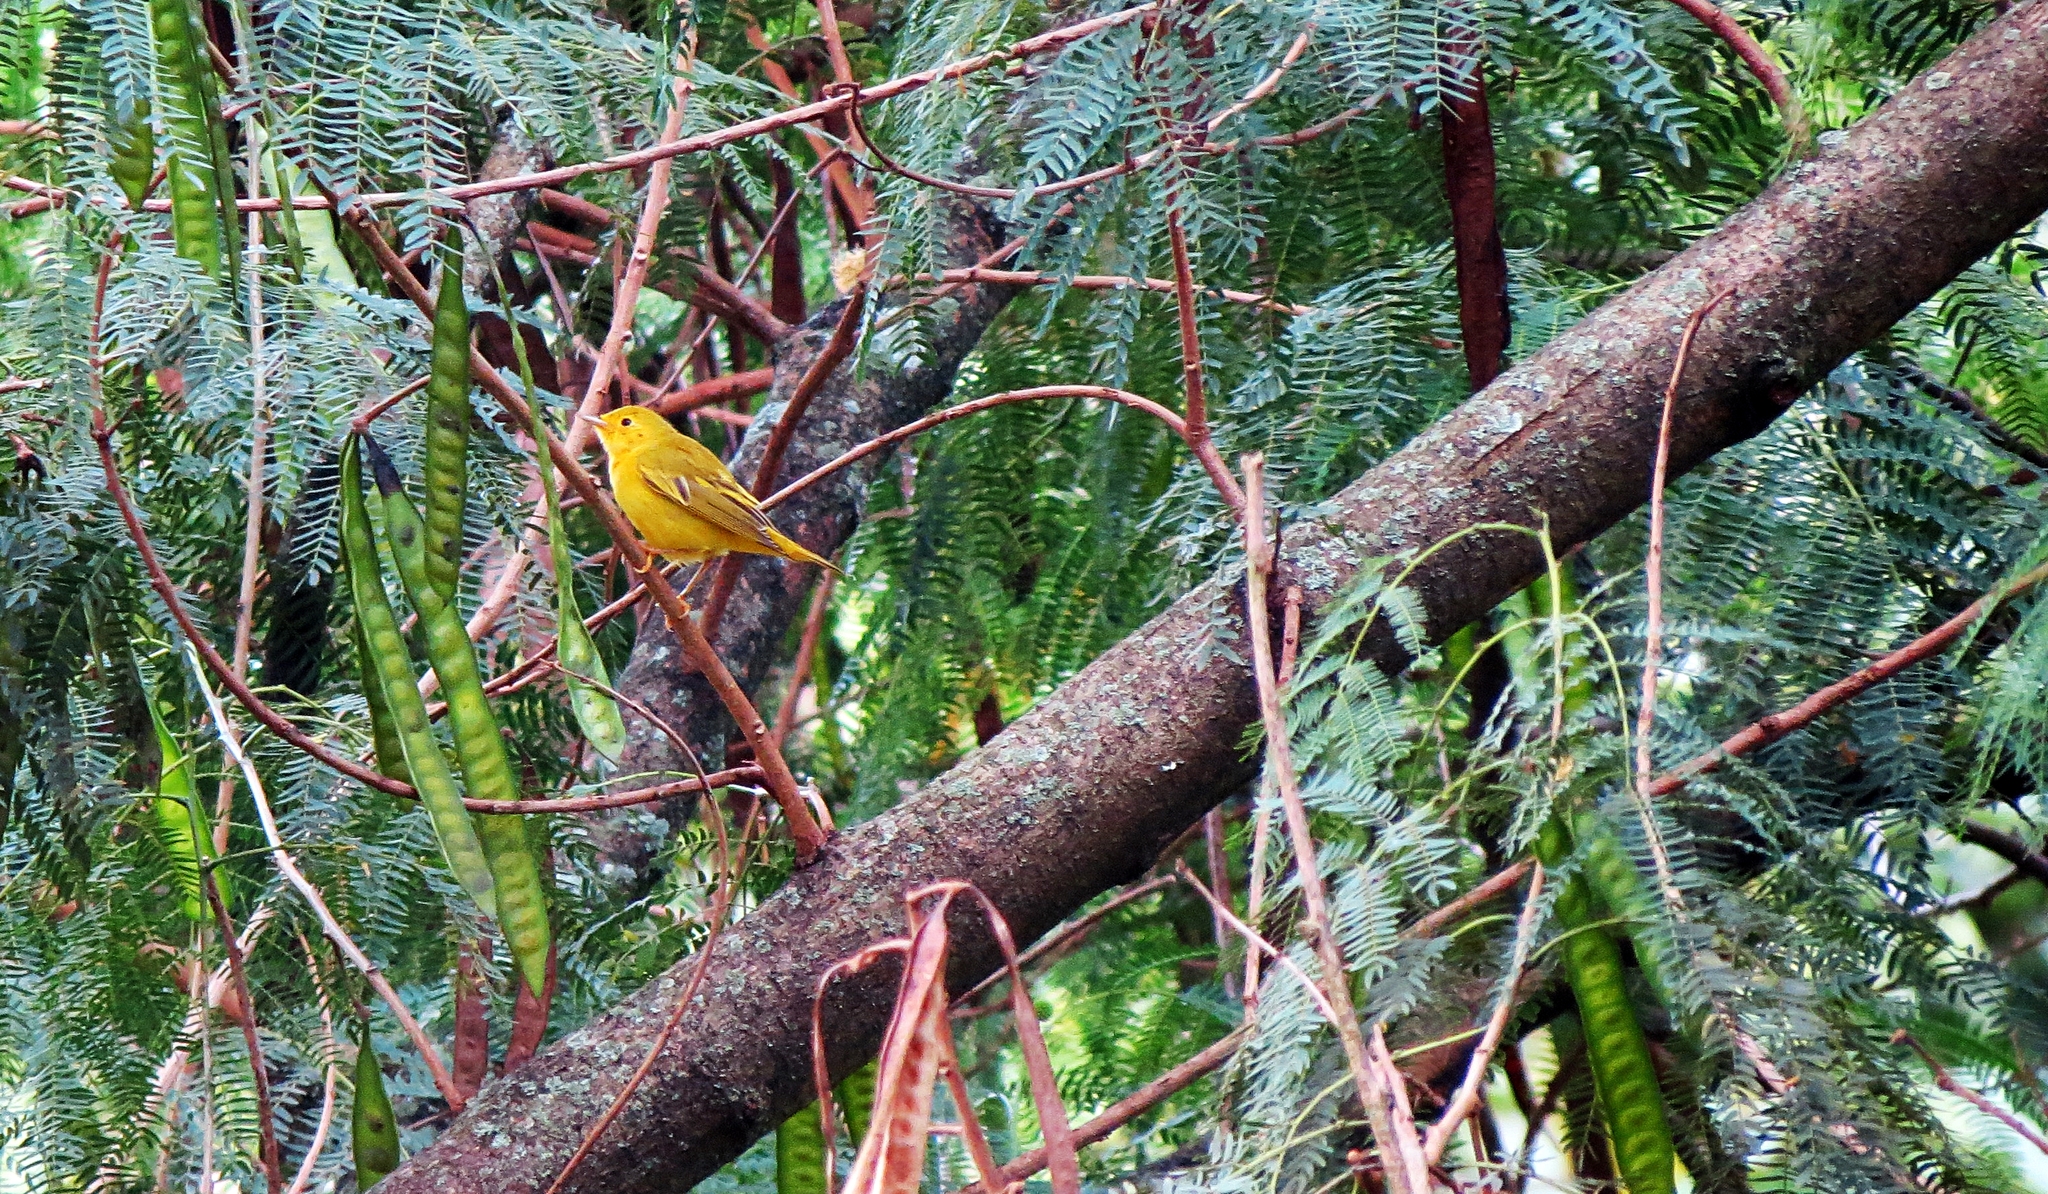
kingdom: Animalia
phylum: Chordata
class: Aves
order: Passeriformes
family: Parulidae
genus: Setophaga
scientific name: Setophaga petechia
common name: Yellow warbler
